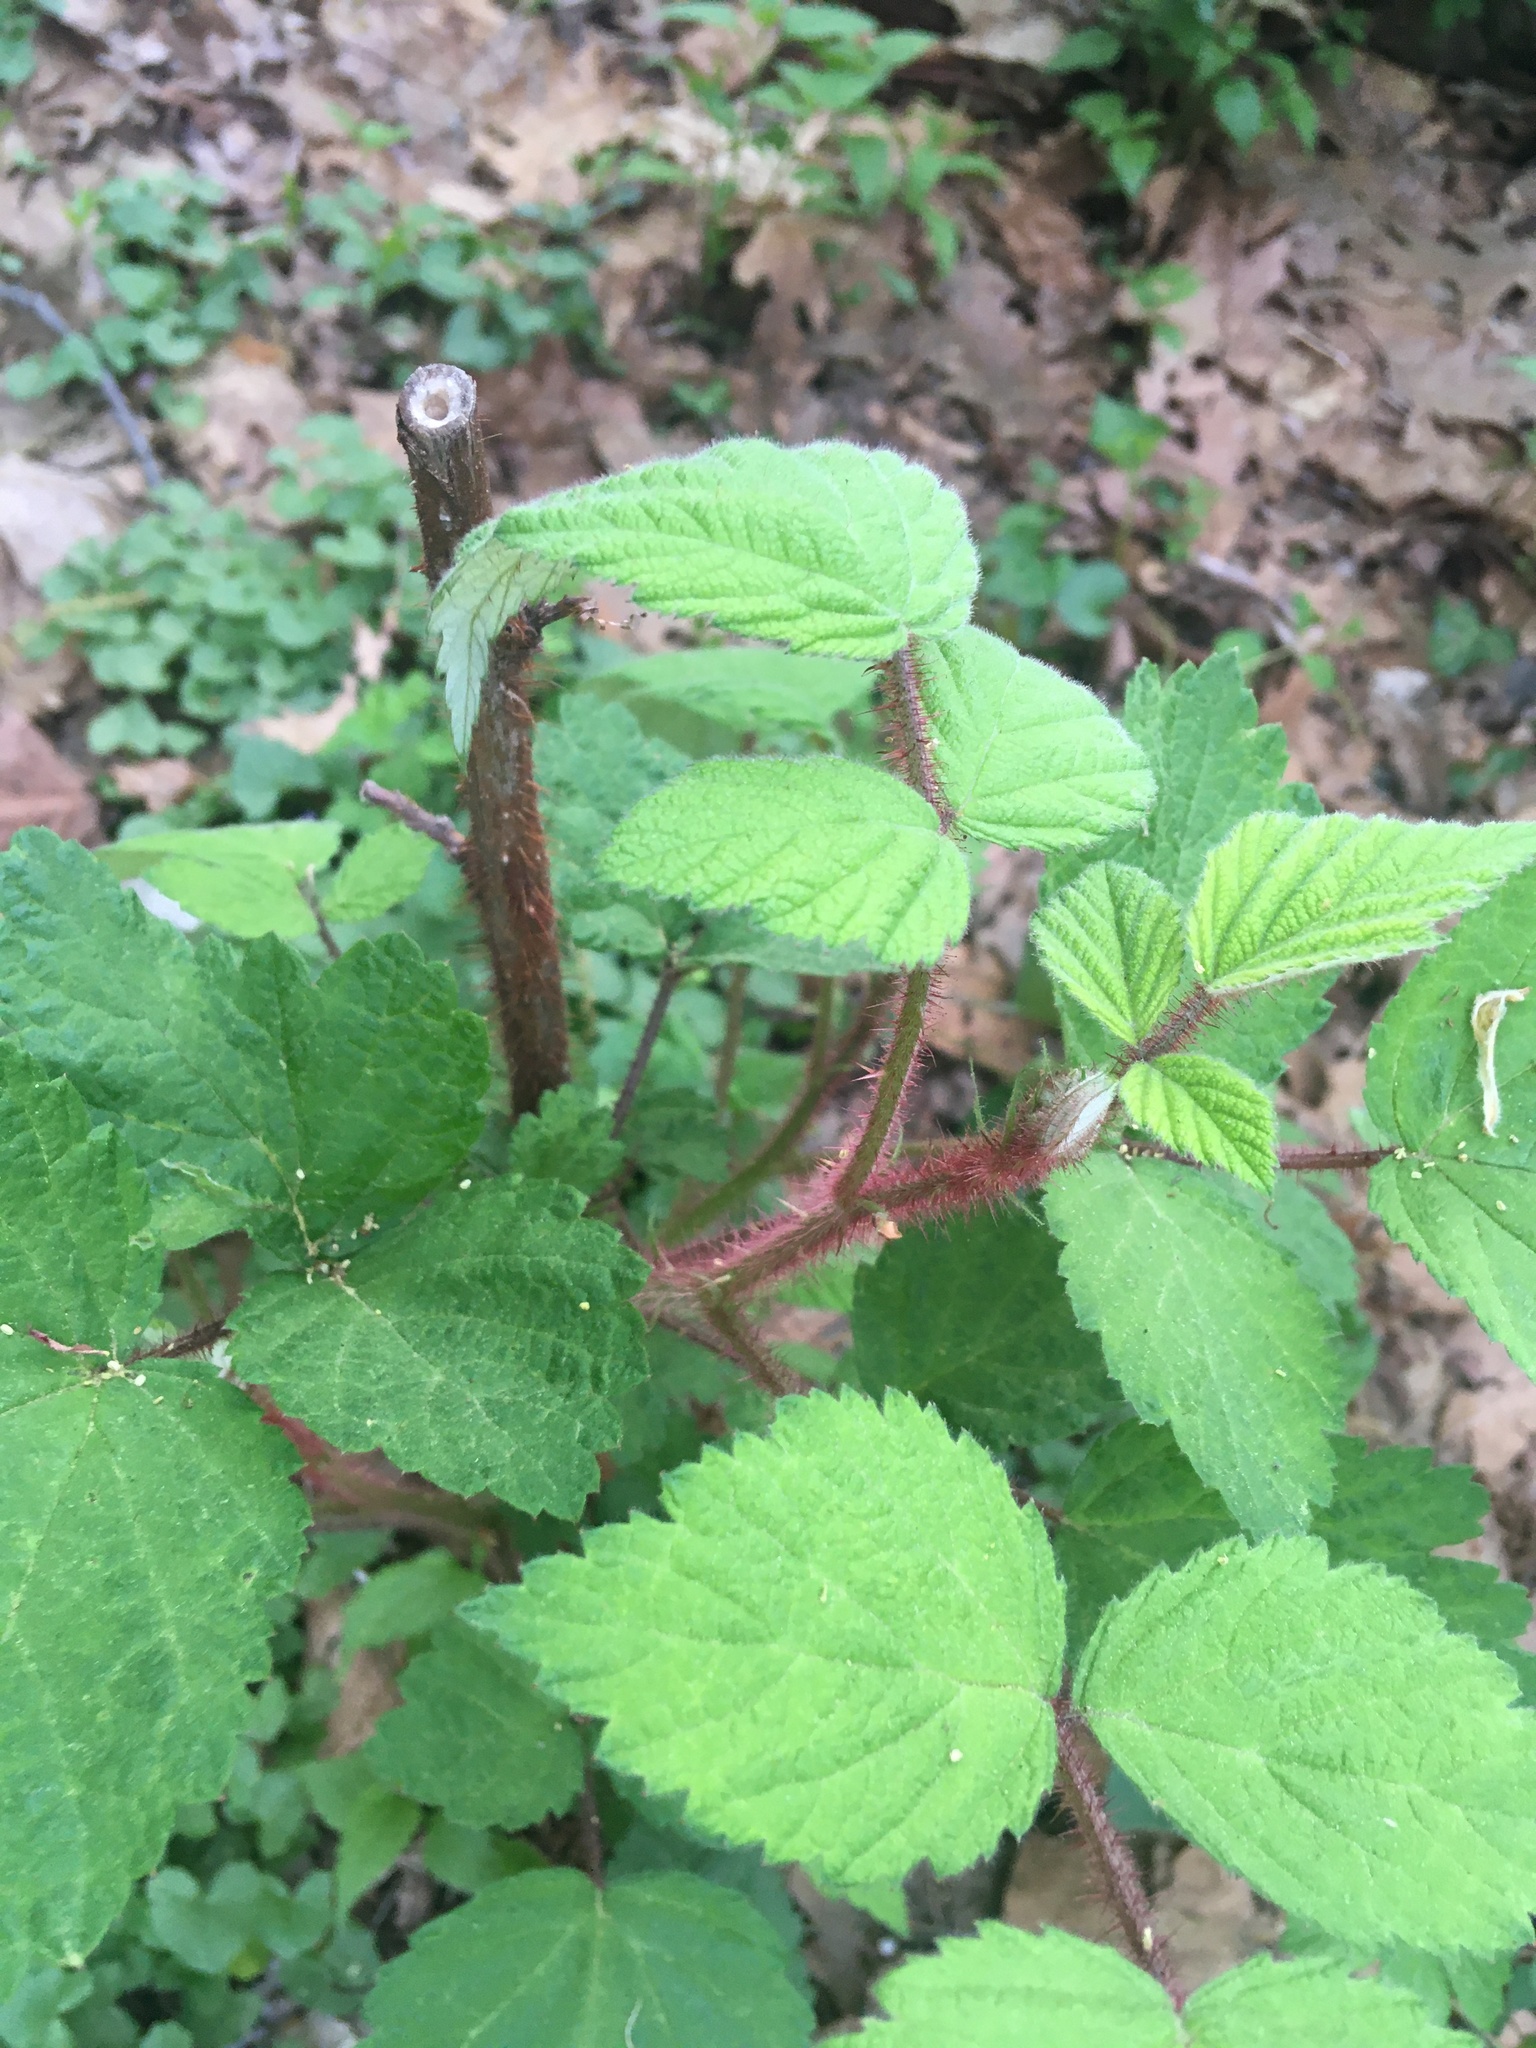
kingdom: Plantae
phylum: Tracheophyta
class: Magnoliopsida
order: Rosales
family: Rosaceae
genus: Rubus
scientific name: Rubus phoenicolasius
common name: Japanese wineberry
